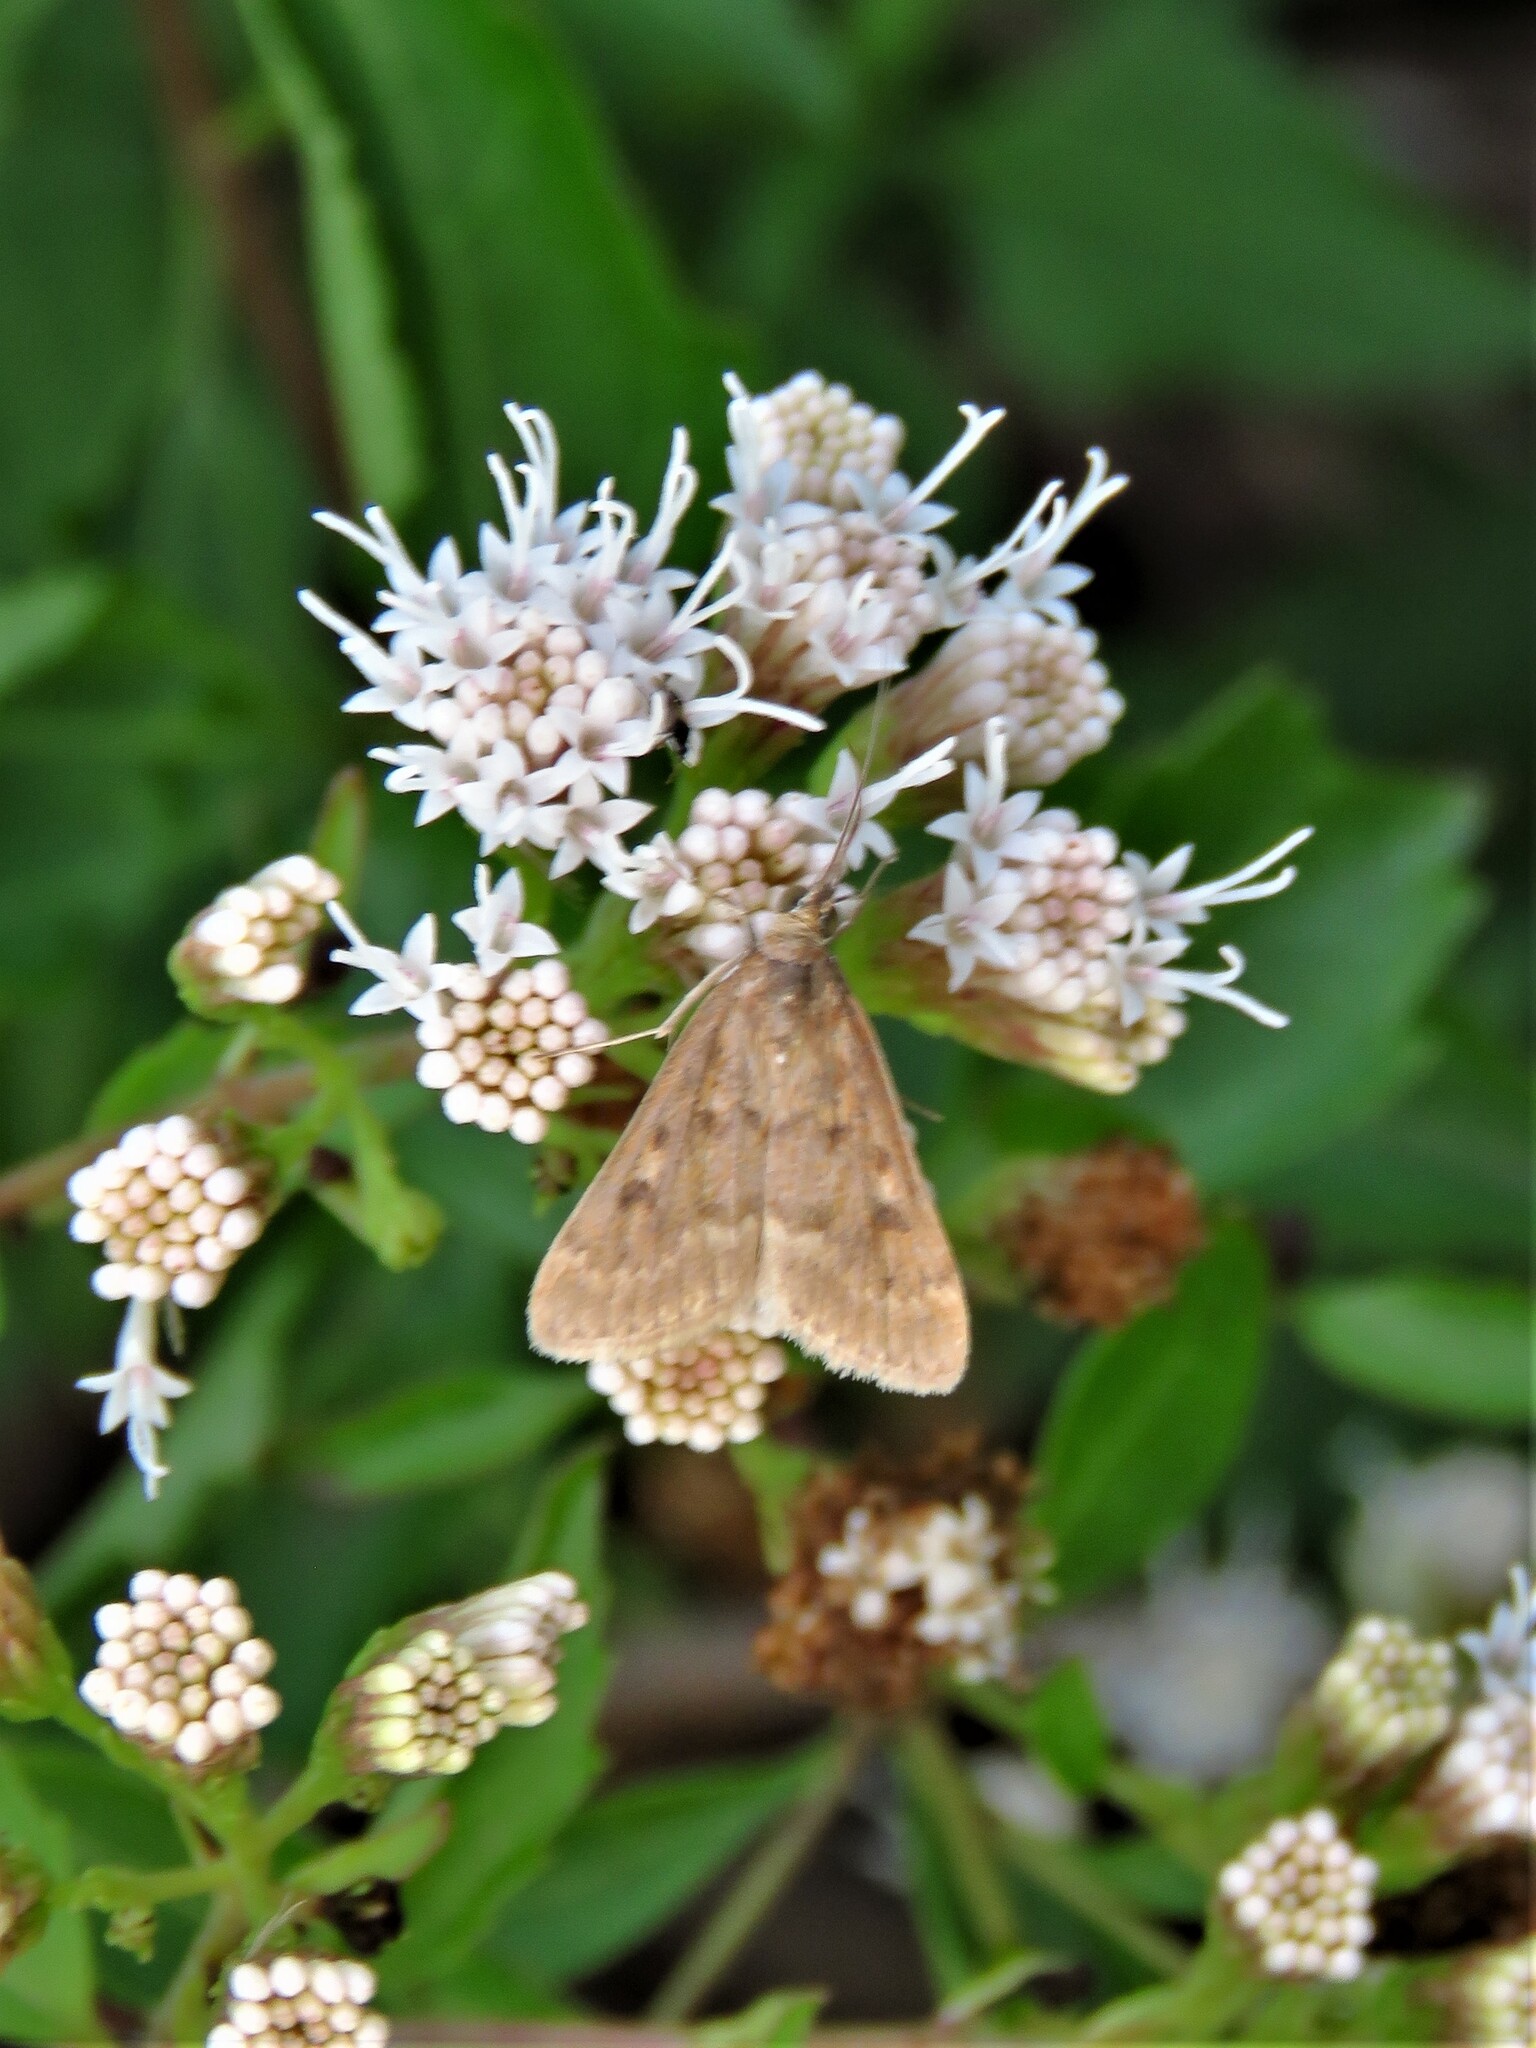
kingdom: Animalia
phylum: Arthropoda
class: Insecta
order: Lepidoptera
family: Crambidae
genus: Achyra
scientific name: Achyra rantalis
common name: Garden webworm
